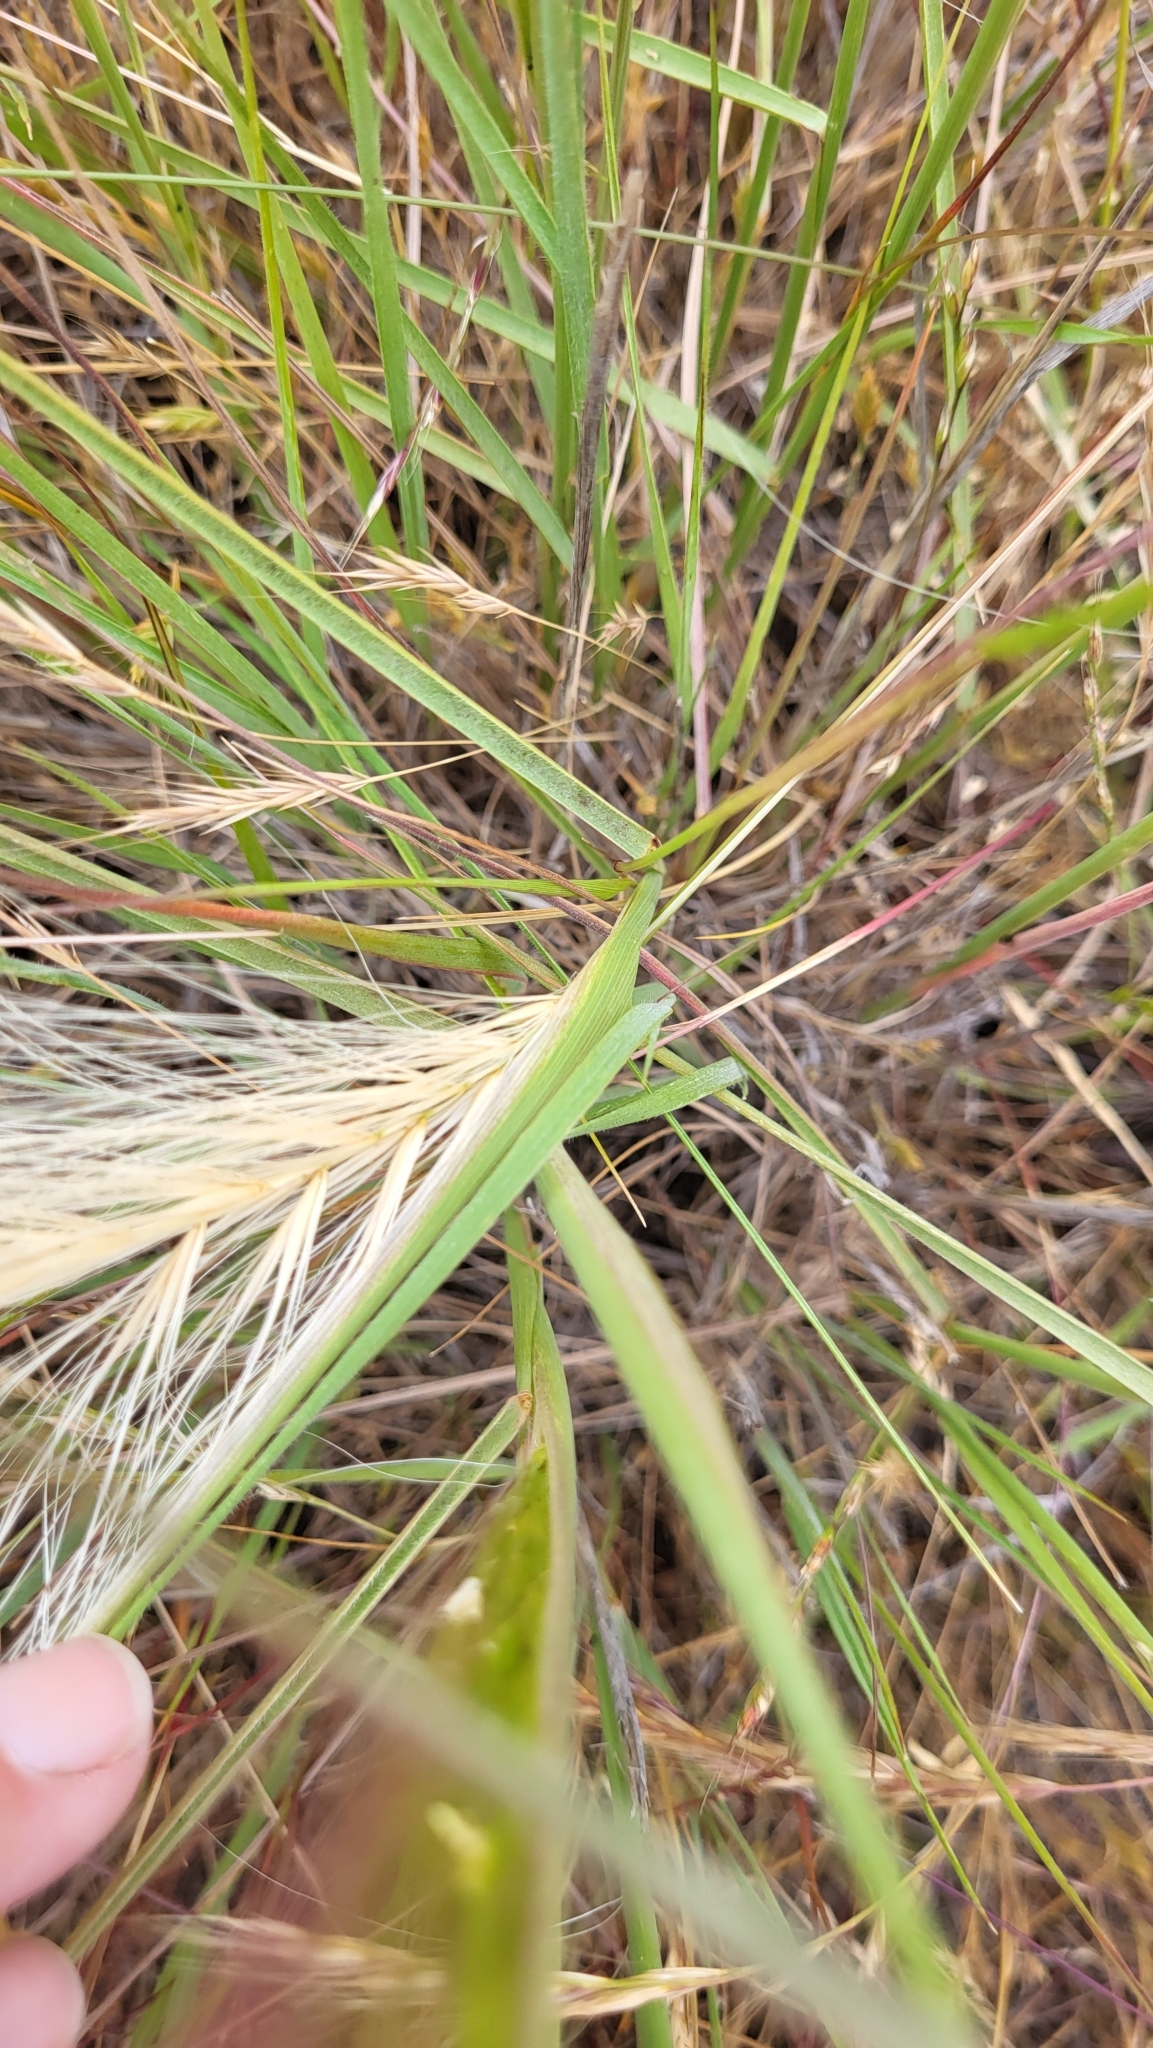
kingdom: Plantae
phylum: Tracheophyta
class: Liliopsida
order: Poales
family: Poaceae
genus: Elymus
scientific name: Elymus multisetus
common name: Big squirreltail
